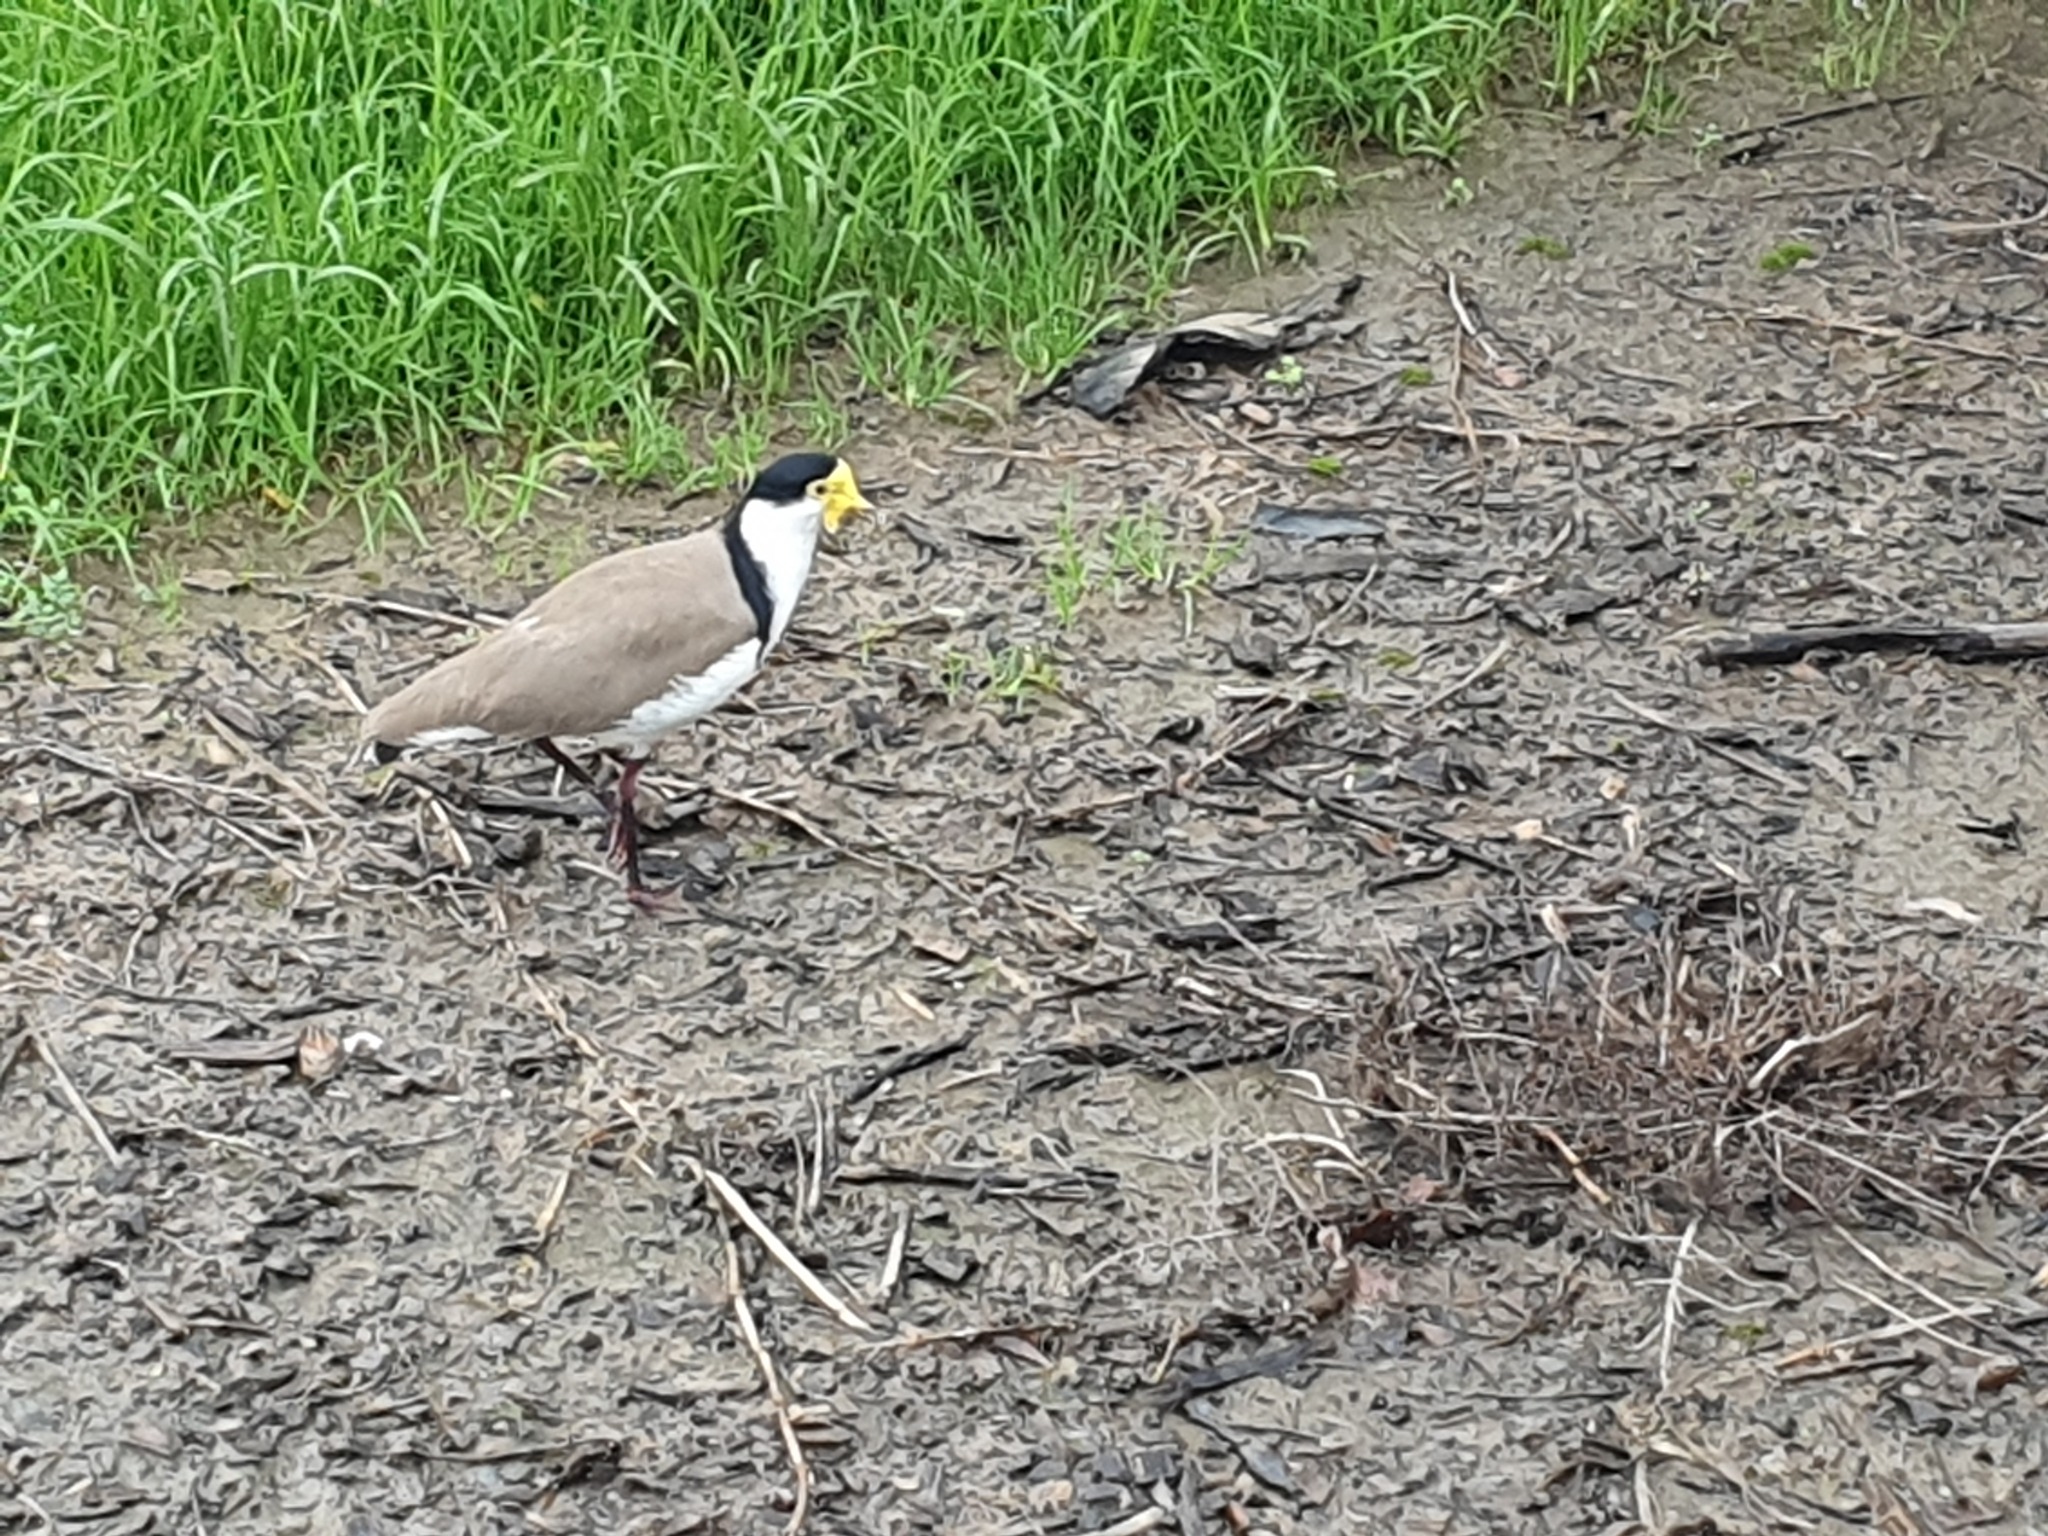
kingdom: Animalia
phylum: Chordata
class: Aves
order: Charadriiformes
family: Charadriidae
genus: Vanellus
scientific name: Vanellus miles
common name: Masked lapwing
